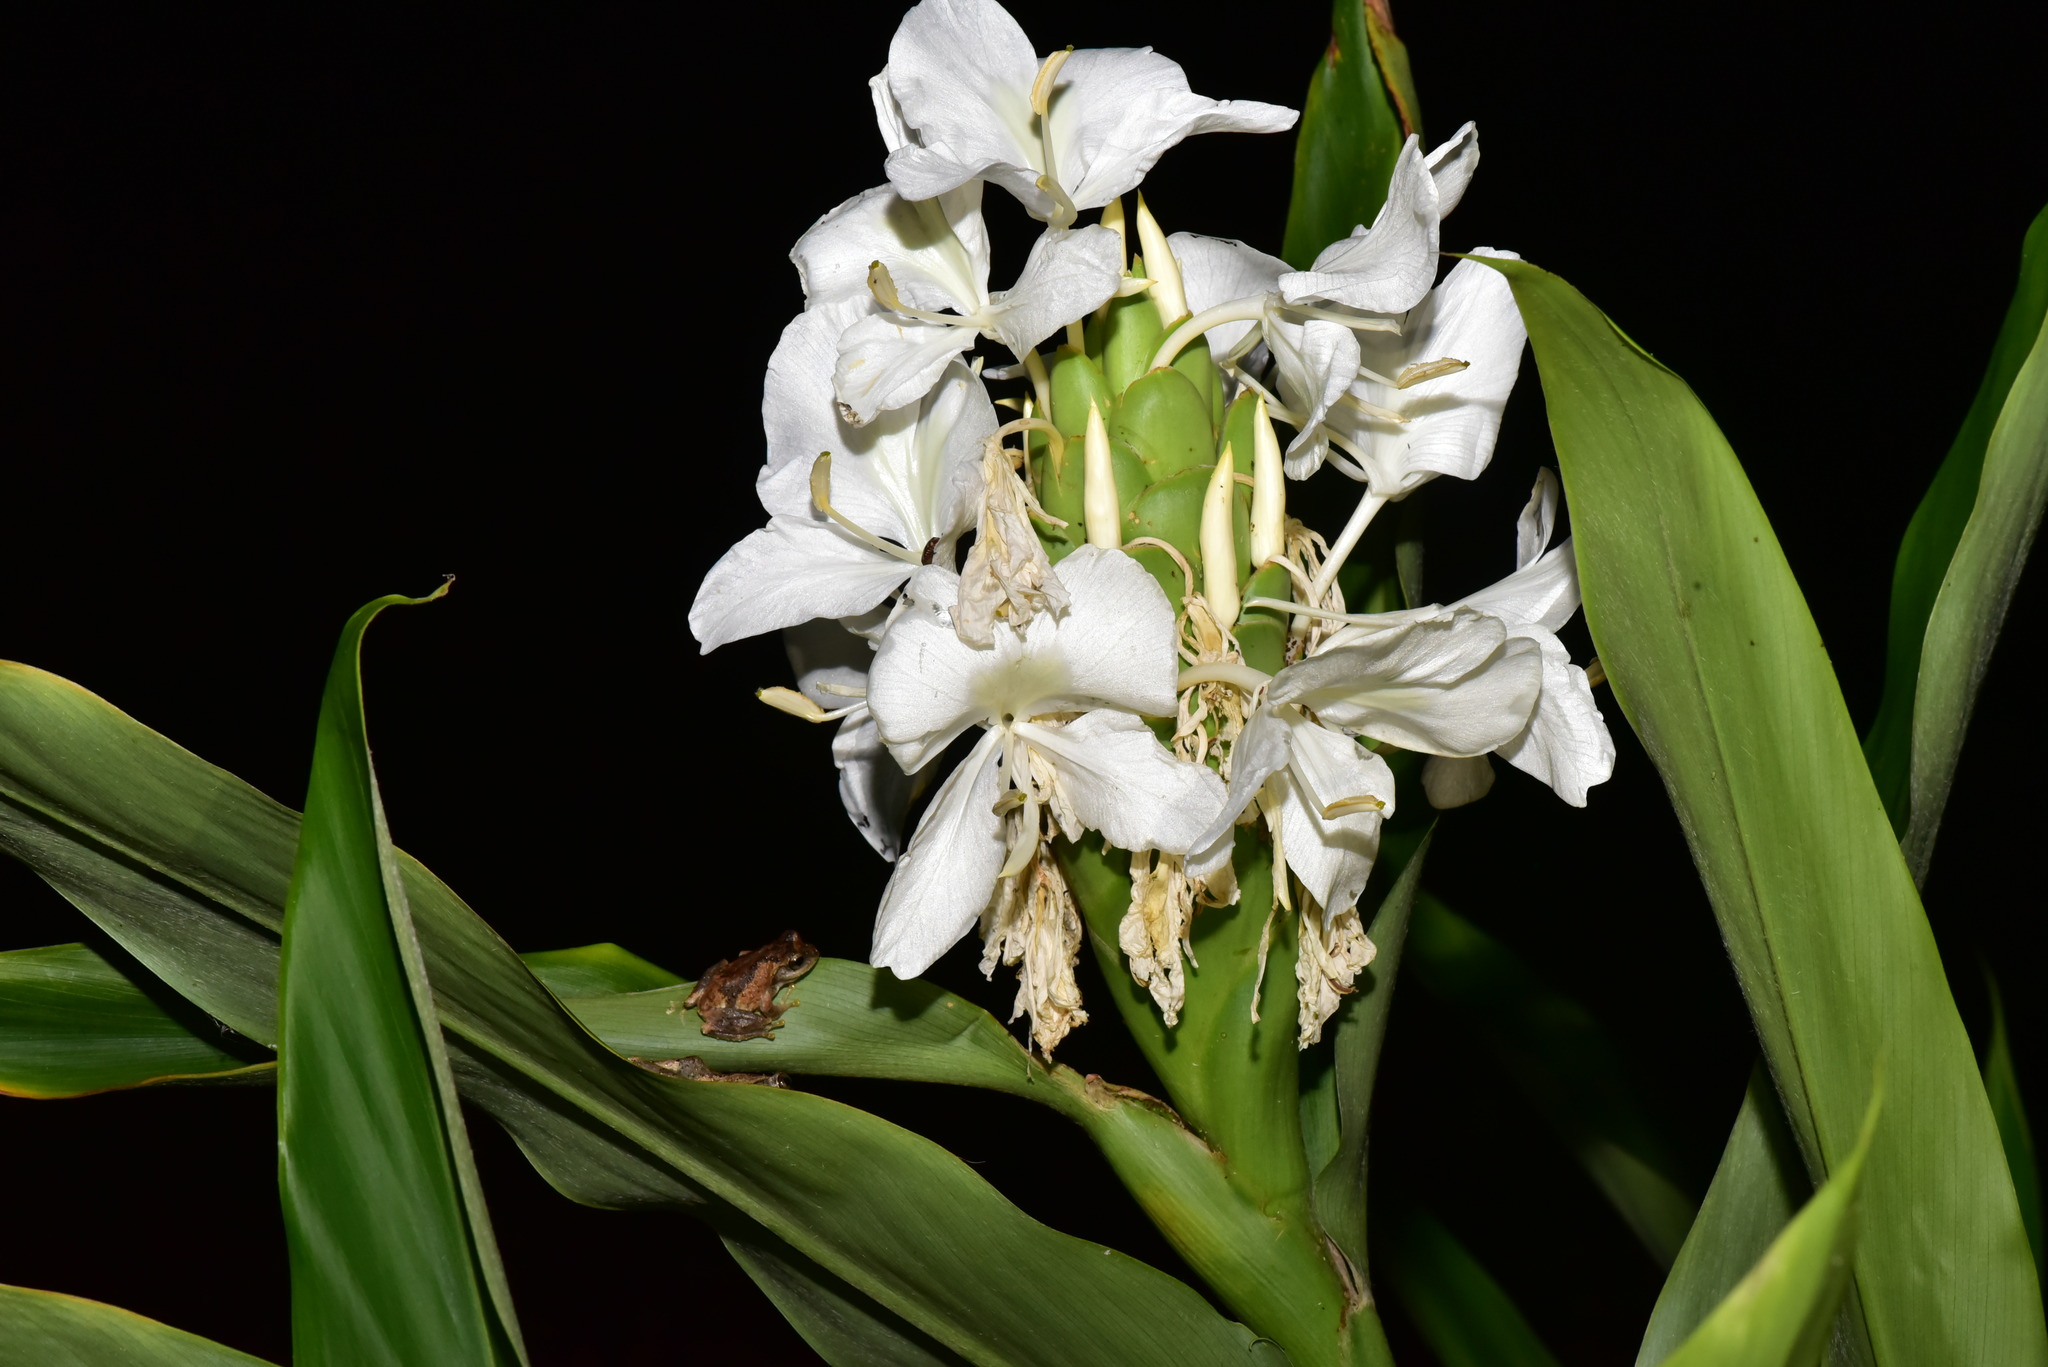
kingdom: Plantae
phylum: Tracheophyta
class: Liliopsida
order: Zingiberales
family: Zingiberaceae
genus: Hedychium
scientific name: Hedychium coronarium
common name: White garland-lily
